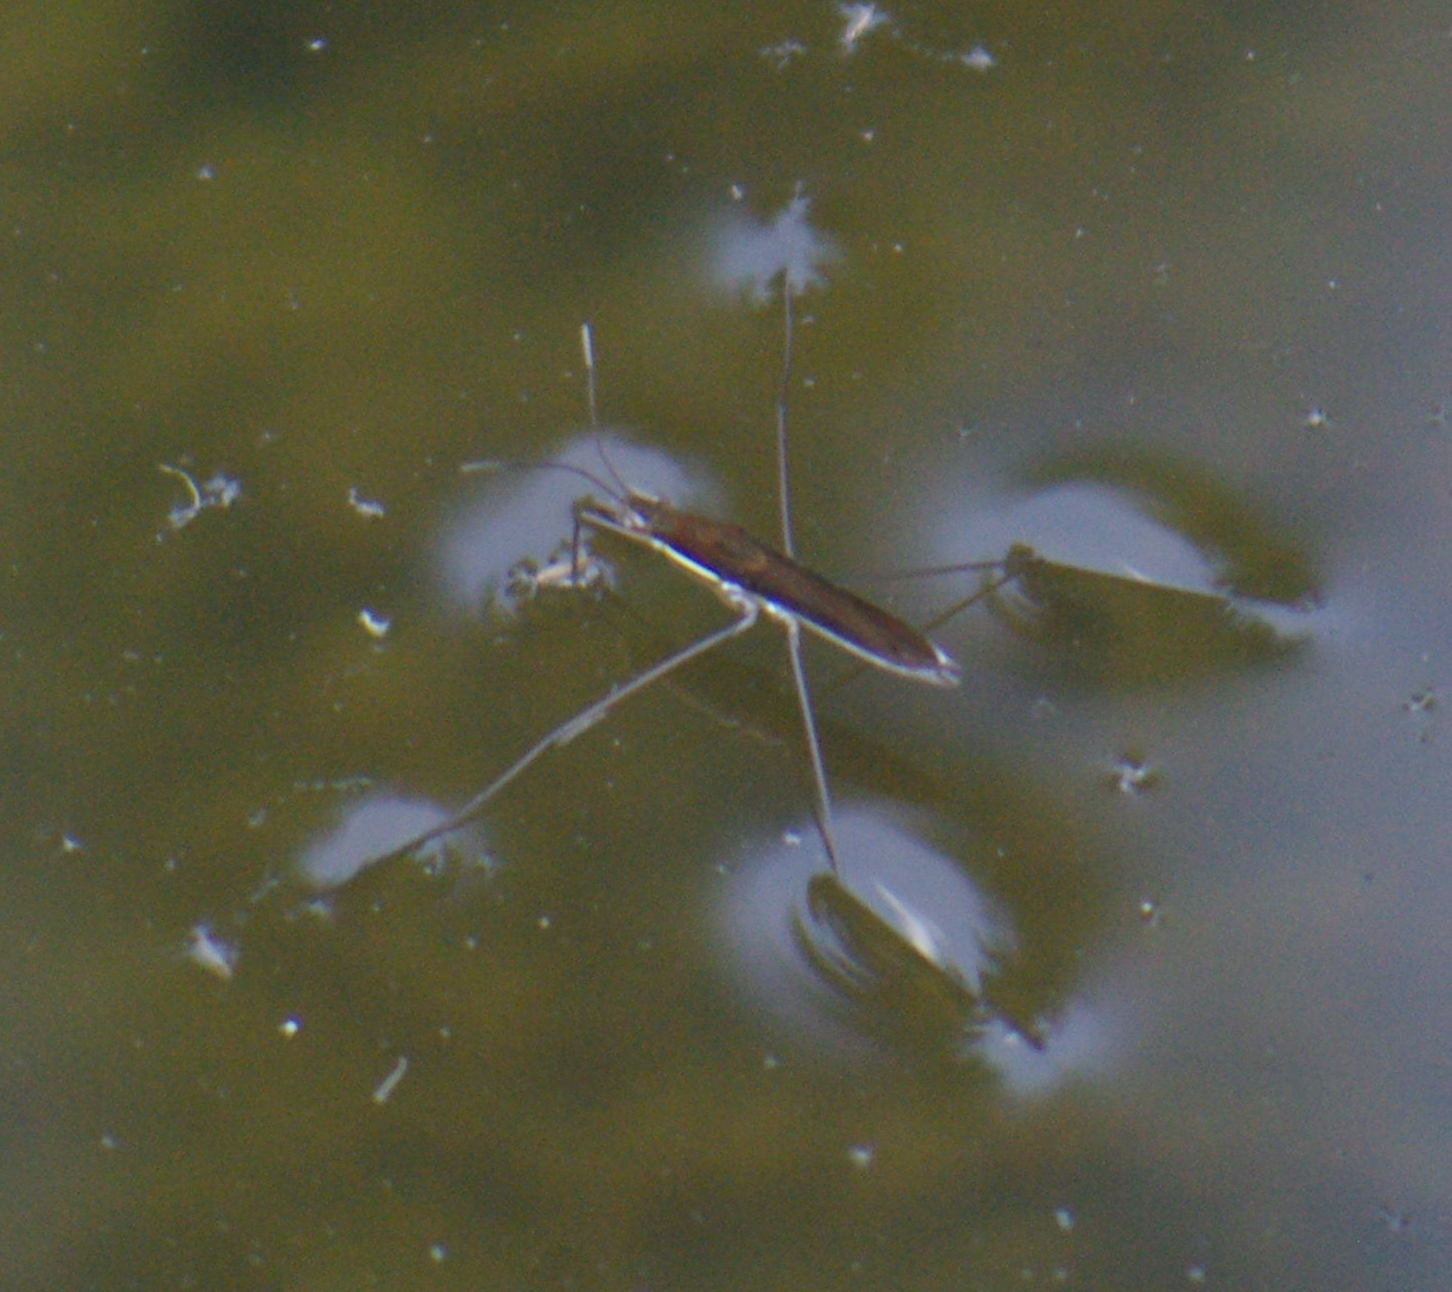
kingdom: Animalia
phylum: Arthropoda
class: Insecta
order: Hemiptera
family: Gerridae
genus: Limnoporus
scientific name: Limnoporus dissortis
